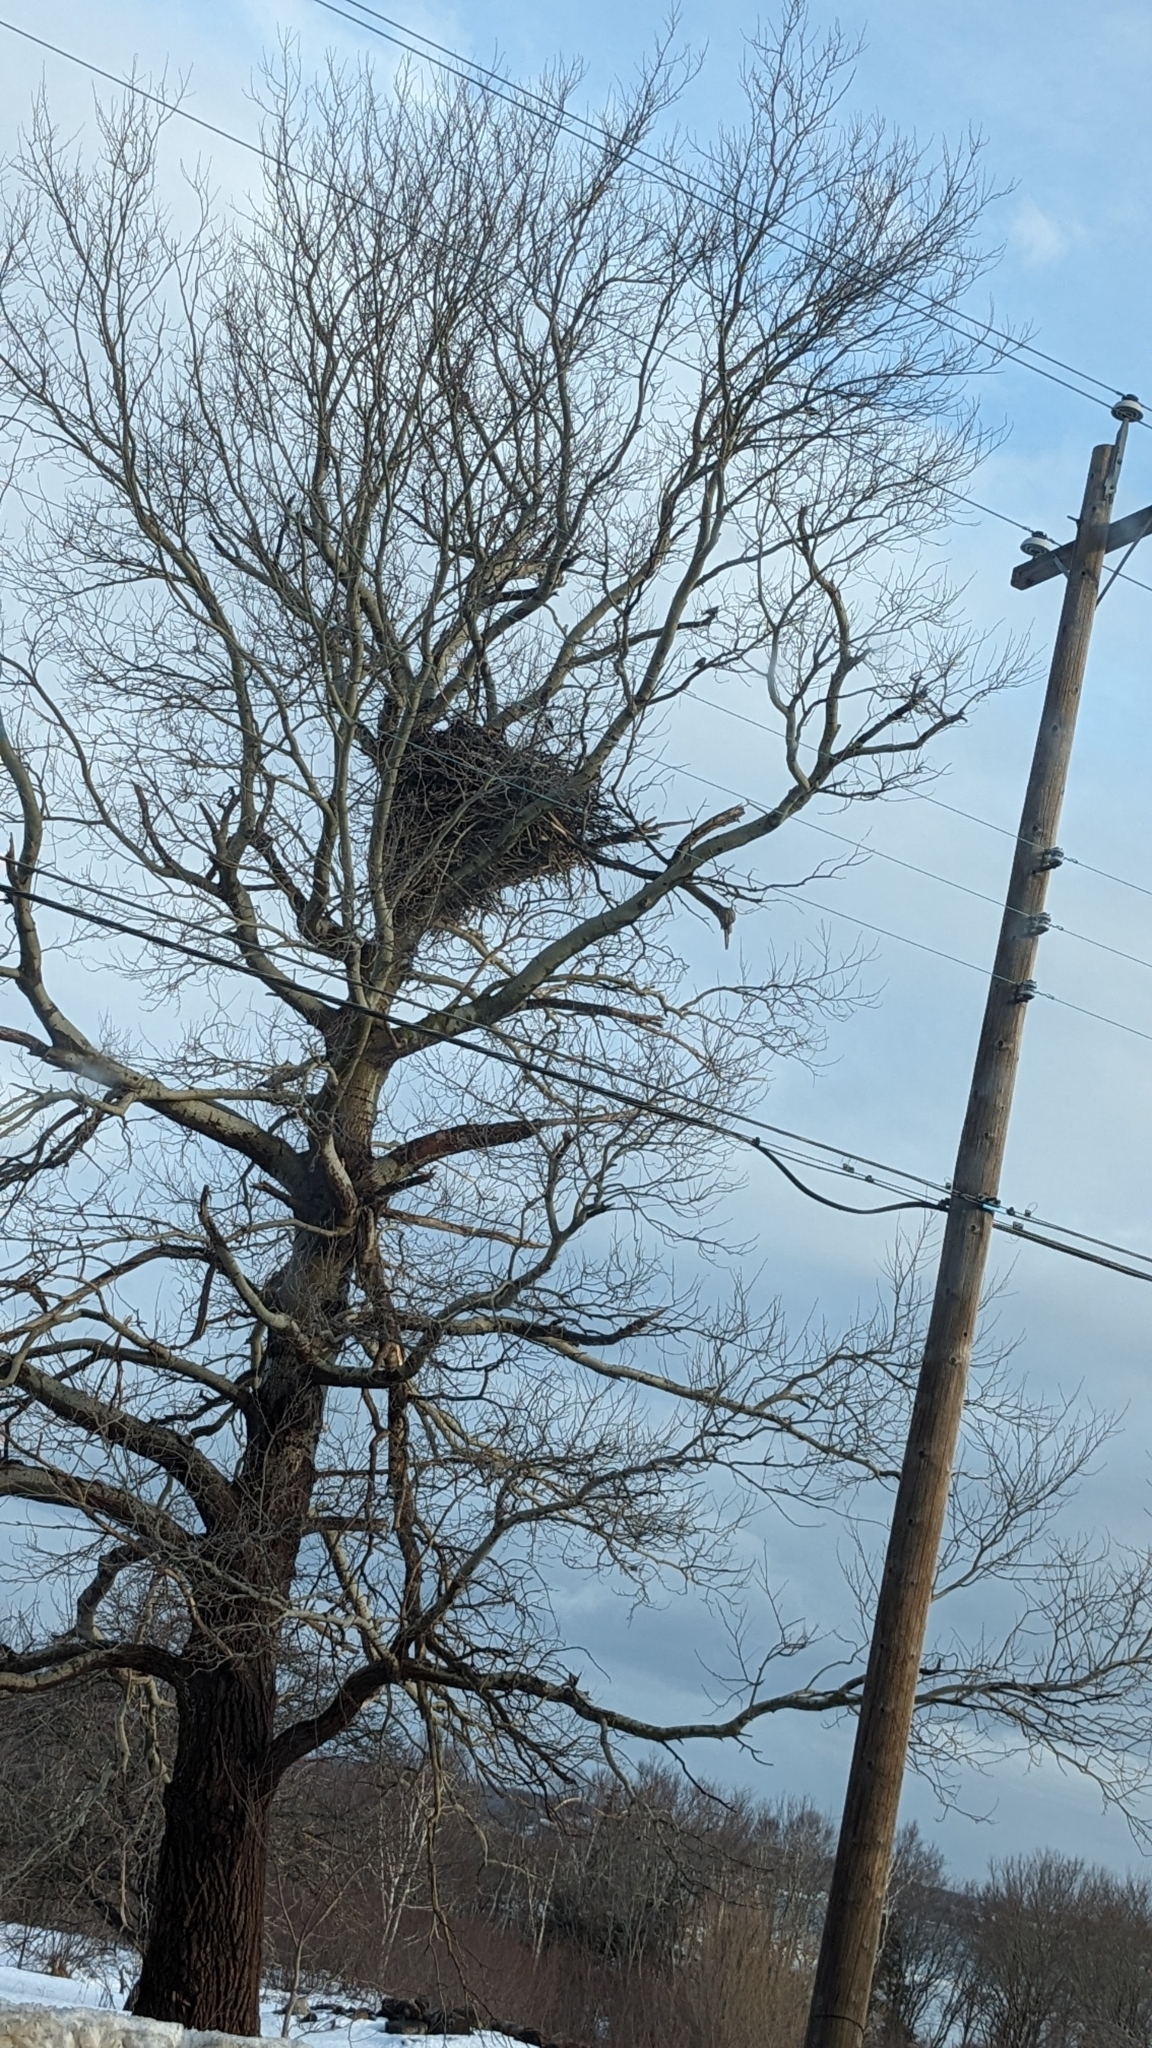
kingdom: Animalia
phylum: Chordata
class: Aves
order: Accipitriformes
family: Accipitridae
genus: Haliaeetus
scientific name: Haliaeetus leucocephalus
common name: Bald eagle
